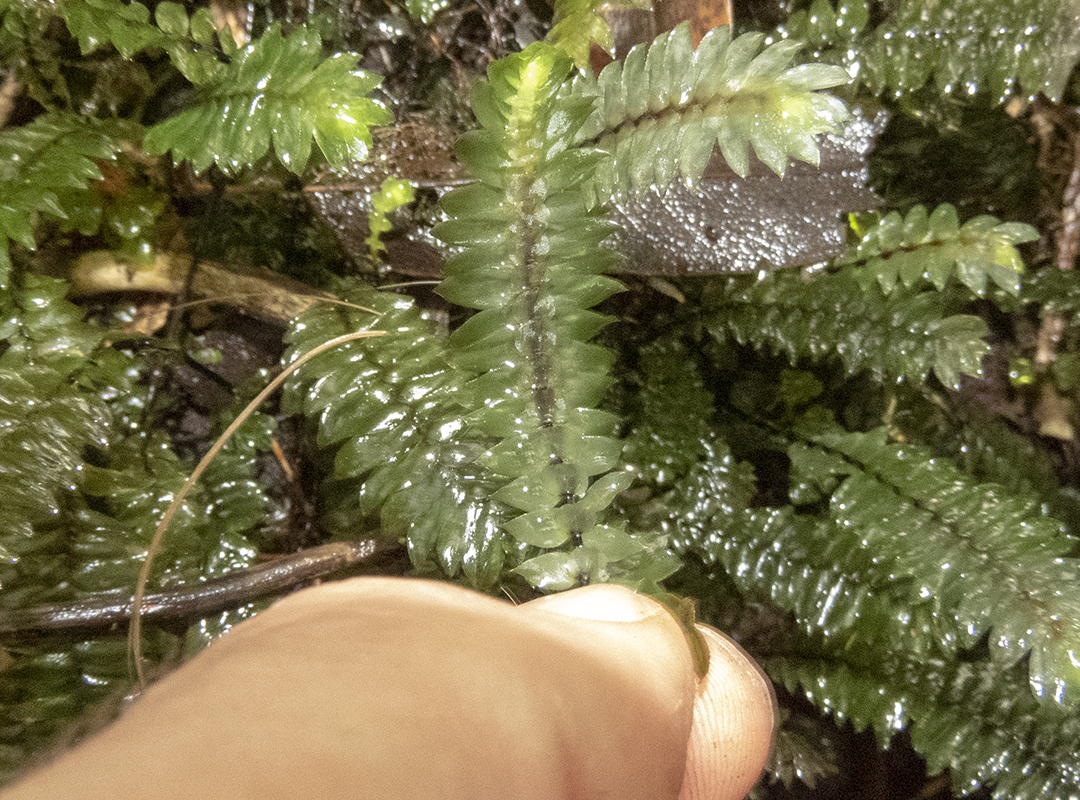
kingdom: Plantae
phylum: Bryophyta
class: Bryopsida
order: Hypopterygiales
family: Hypopterygiaceae
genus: Cyathophorum
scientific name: Cyathophorum bulbosum
